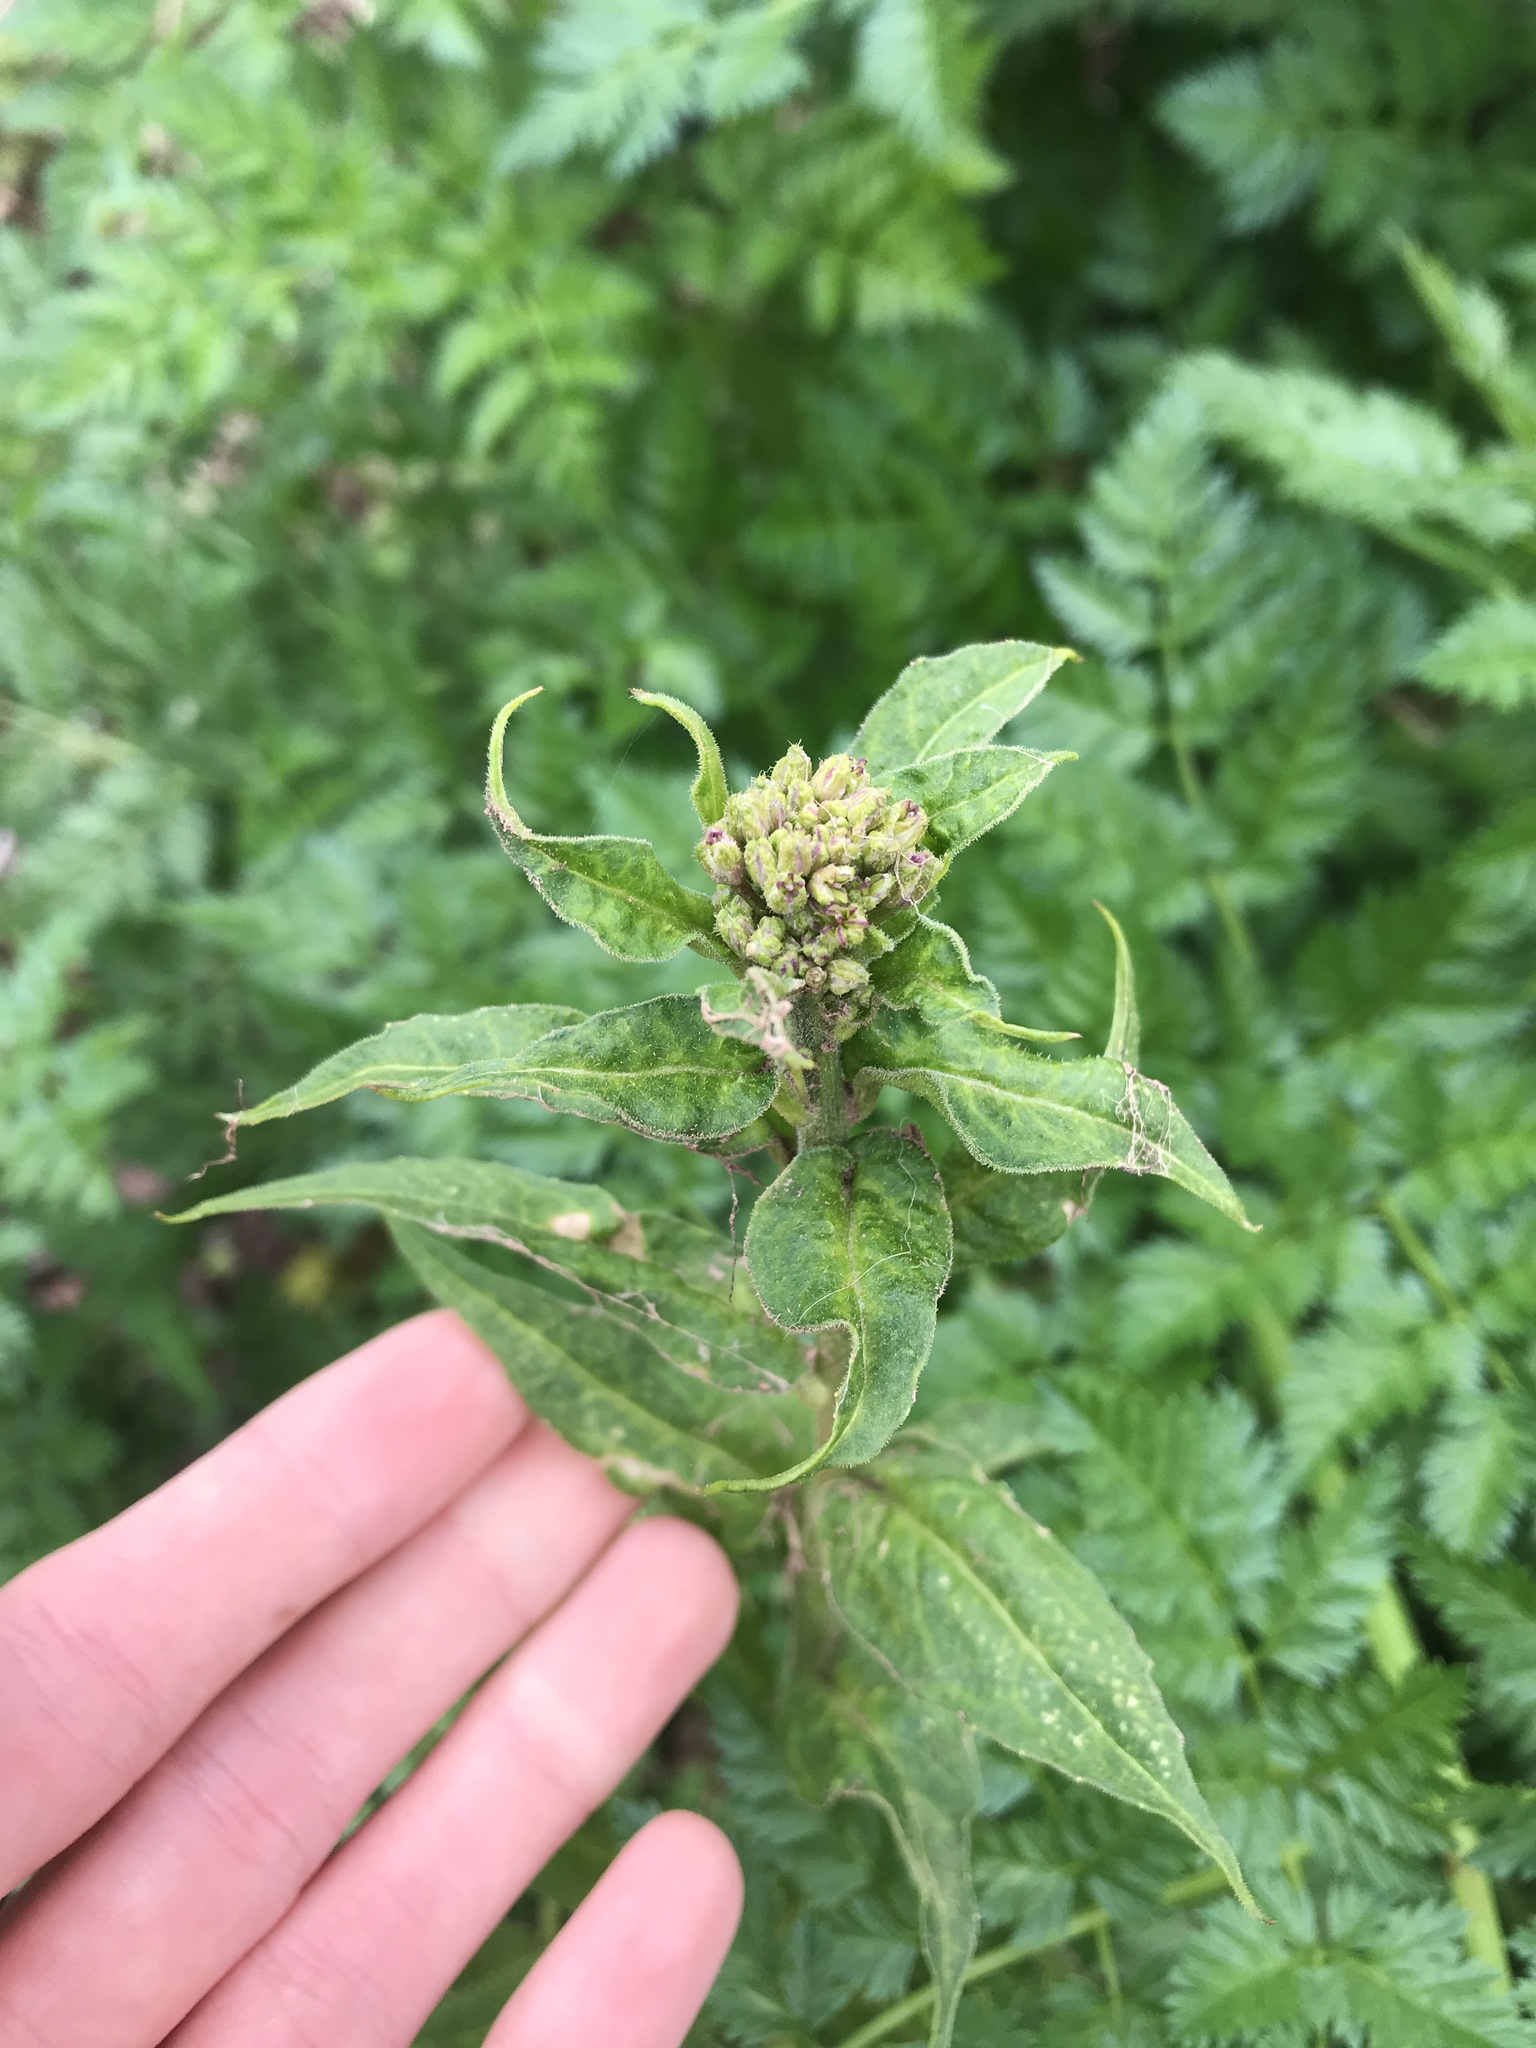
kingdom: Plantae
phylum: Tracheophyta
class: Magnoliopsida
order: Brassicales
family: Brassicaceae
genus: Hesperis
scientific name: Hesperis matronalis
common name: Dame's-violet
